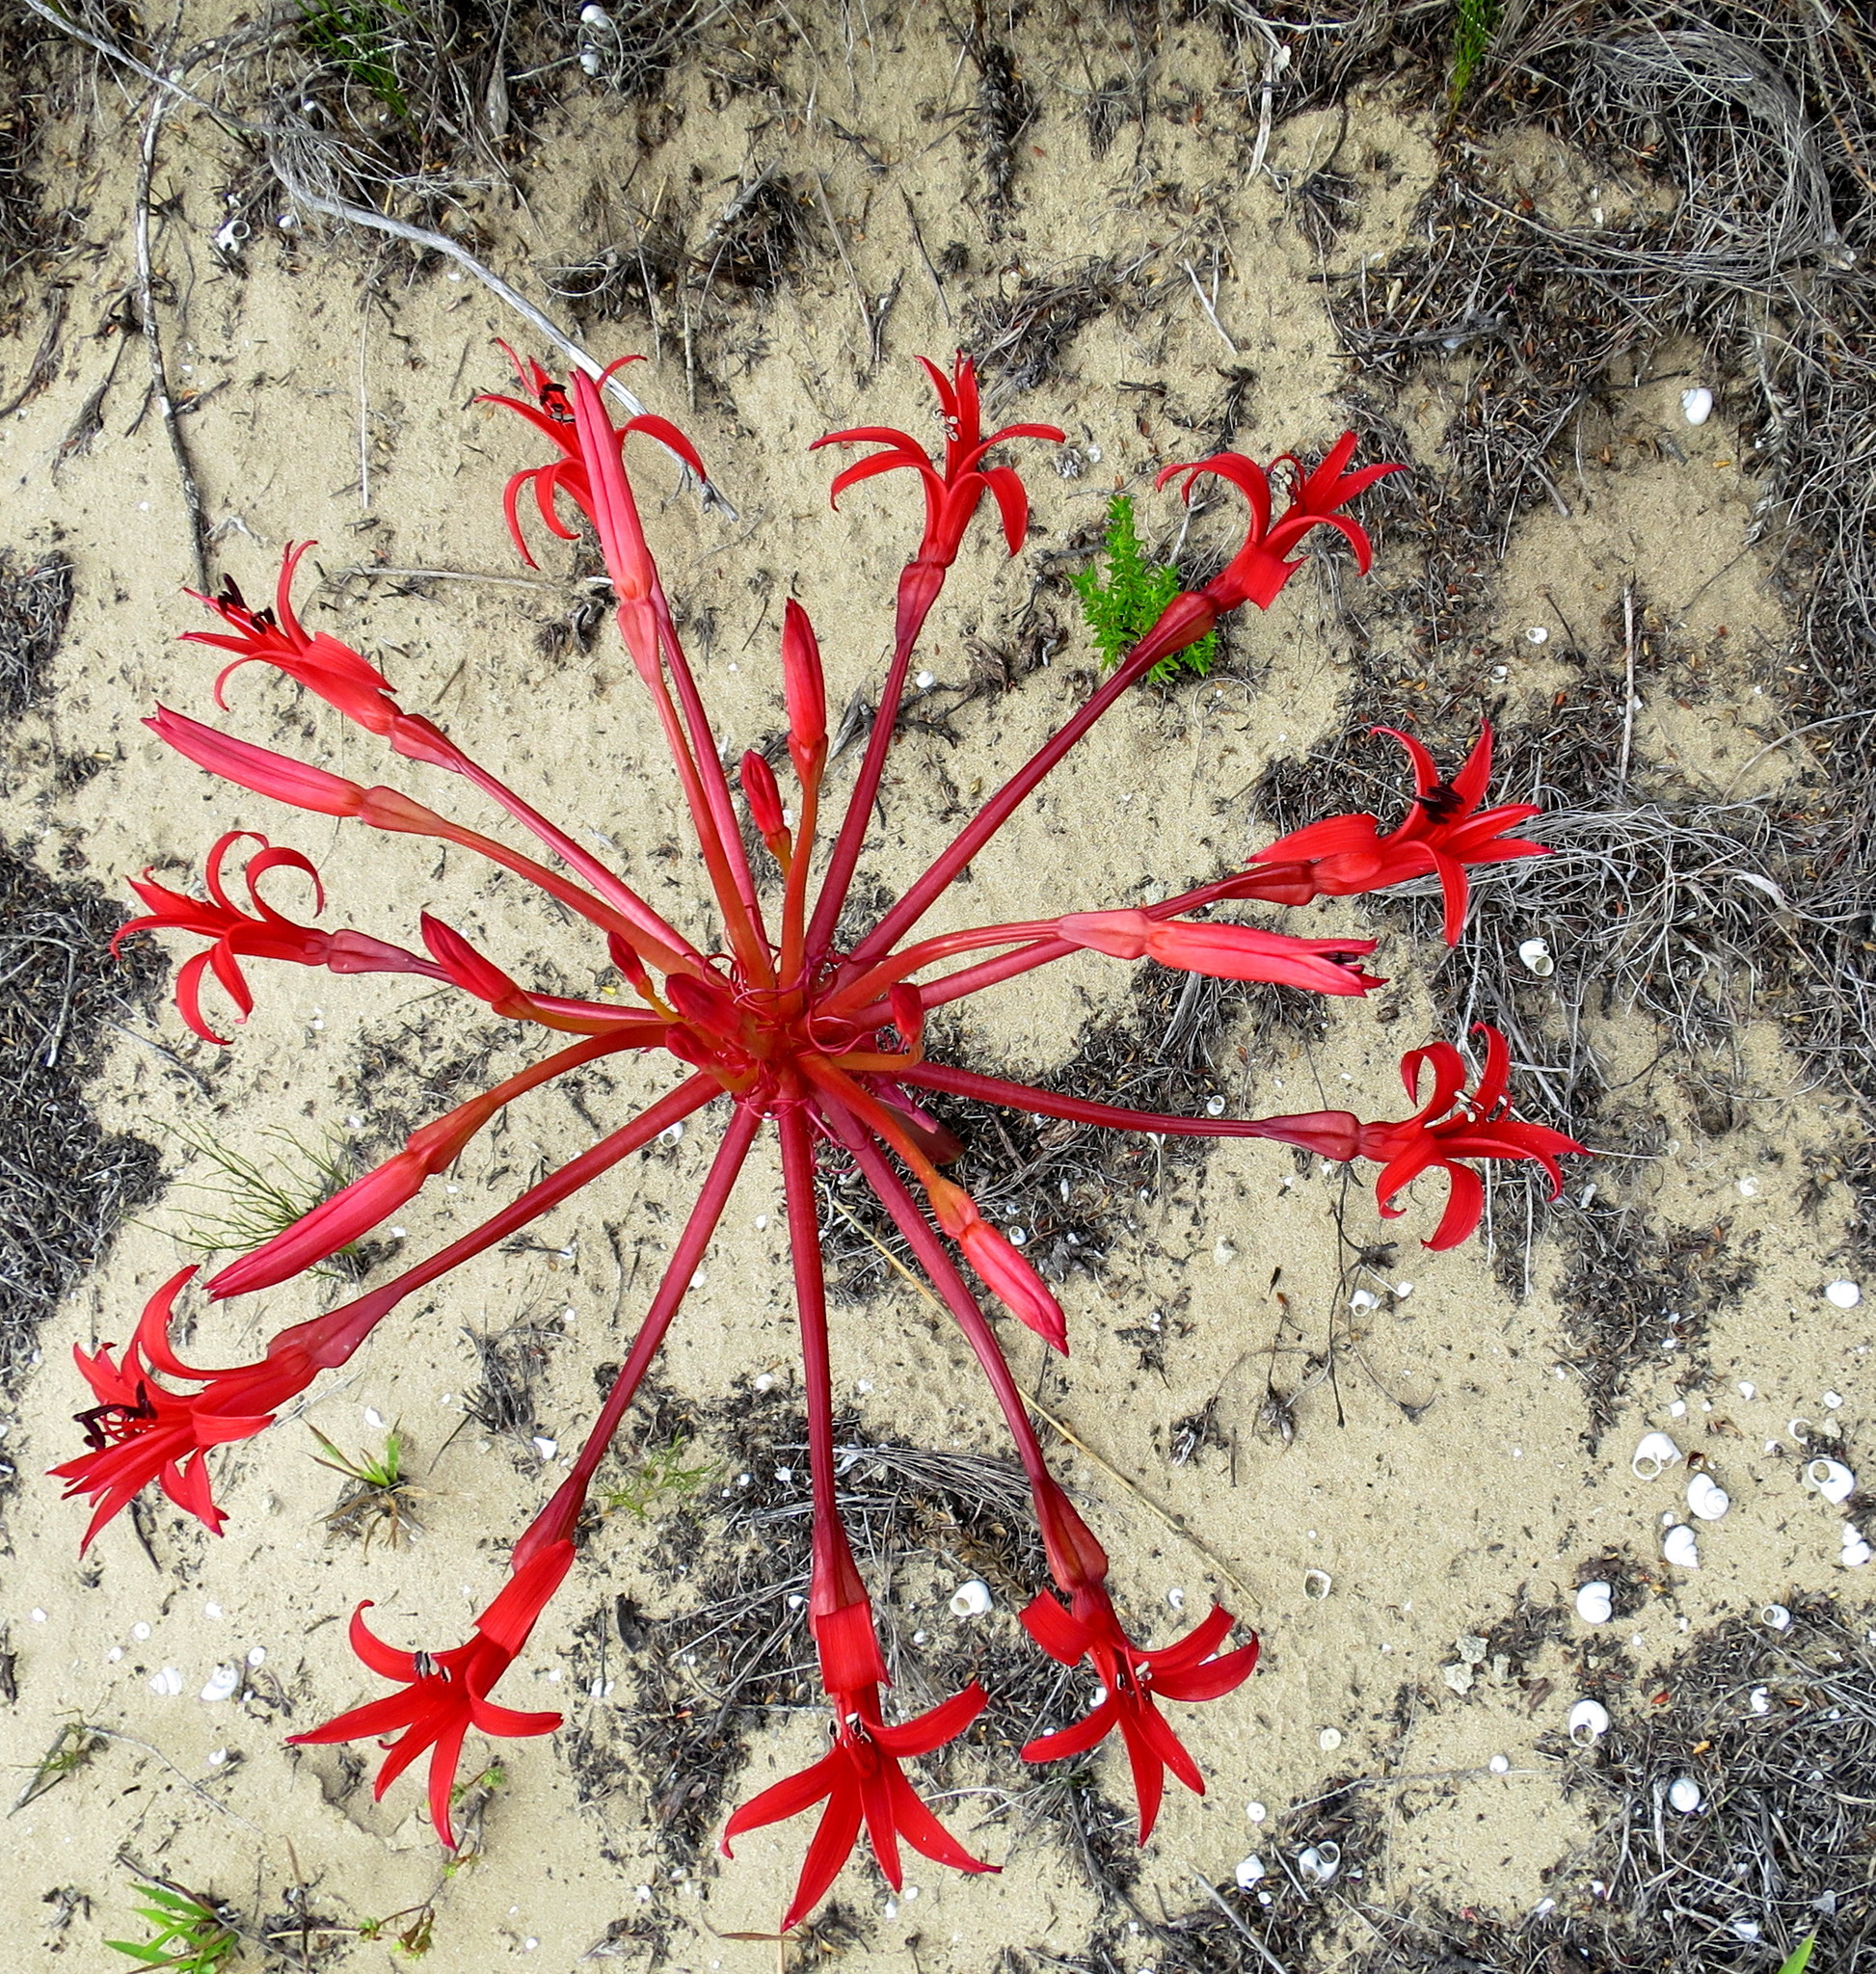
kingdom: Plantae
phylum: Tracheophyta
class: Liliopsida
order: Asparagales
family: Amaryllidaceae
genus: Brunsvigia
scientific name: Brunsvigia orientalis
